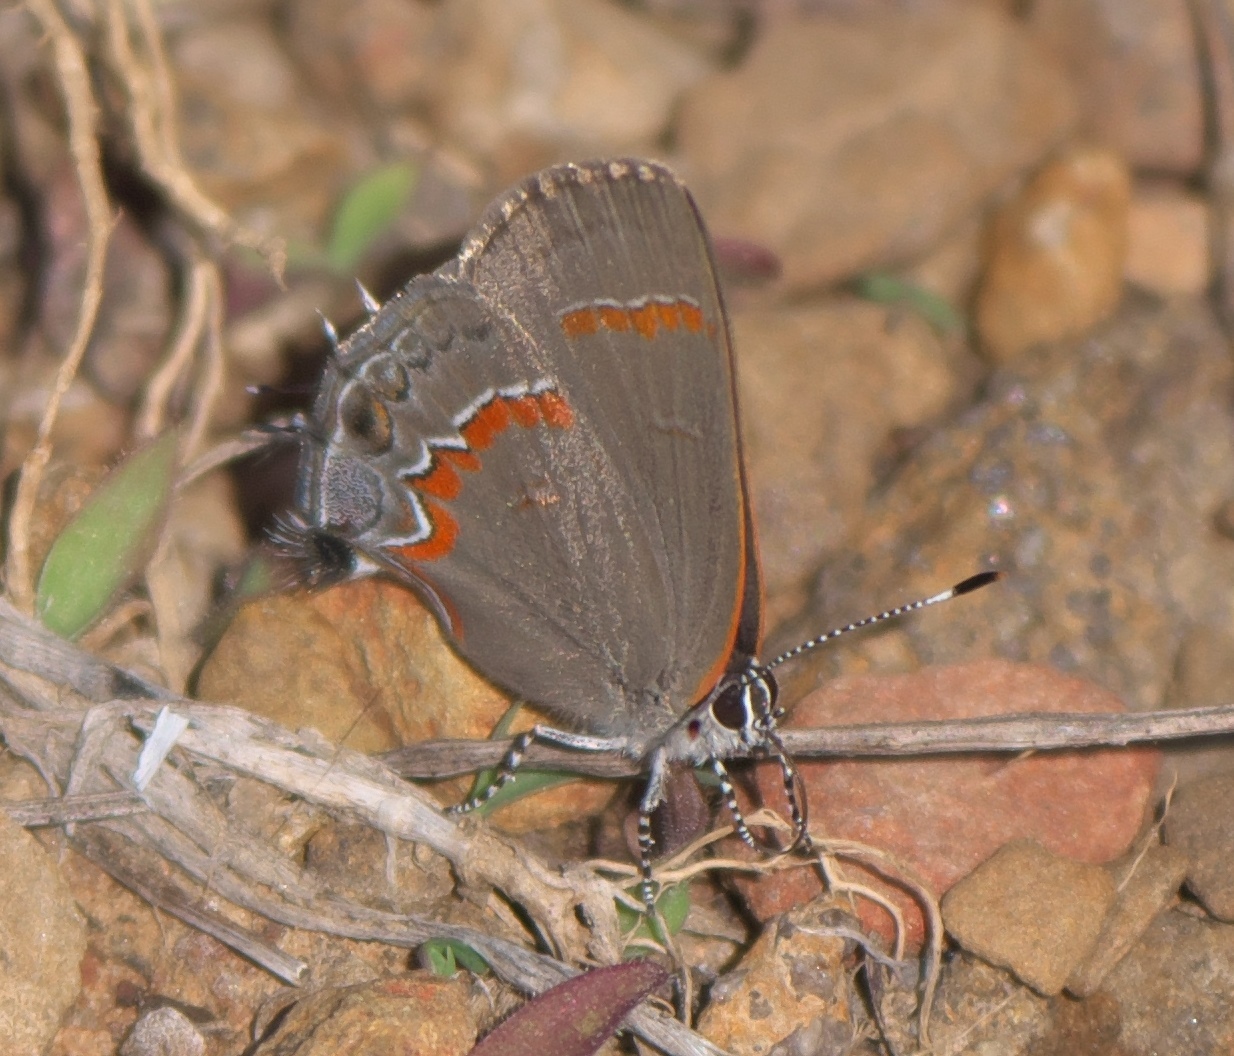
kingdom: Animalia
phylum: Arthropoda
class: Insecta
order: Lepidoptera
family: Lycaenidae
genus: Calycopis
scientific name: Calycopis cecrops
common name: Red-banded hairstreak
